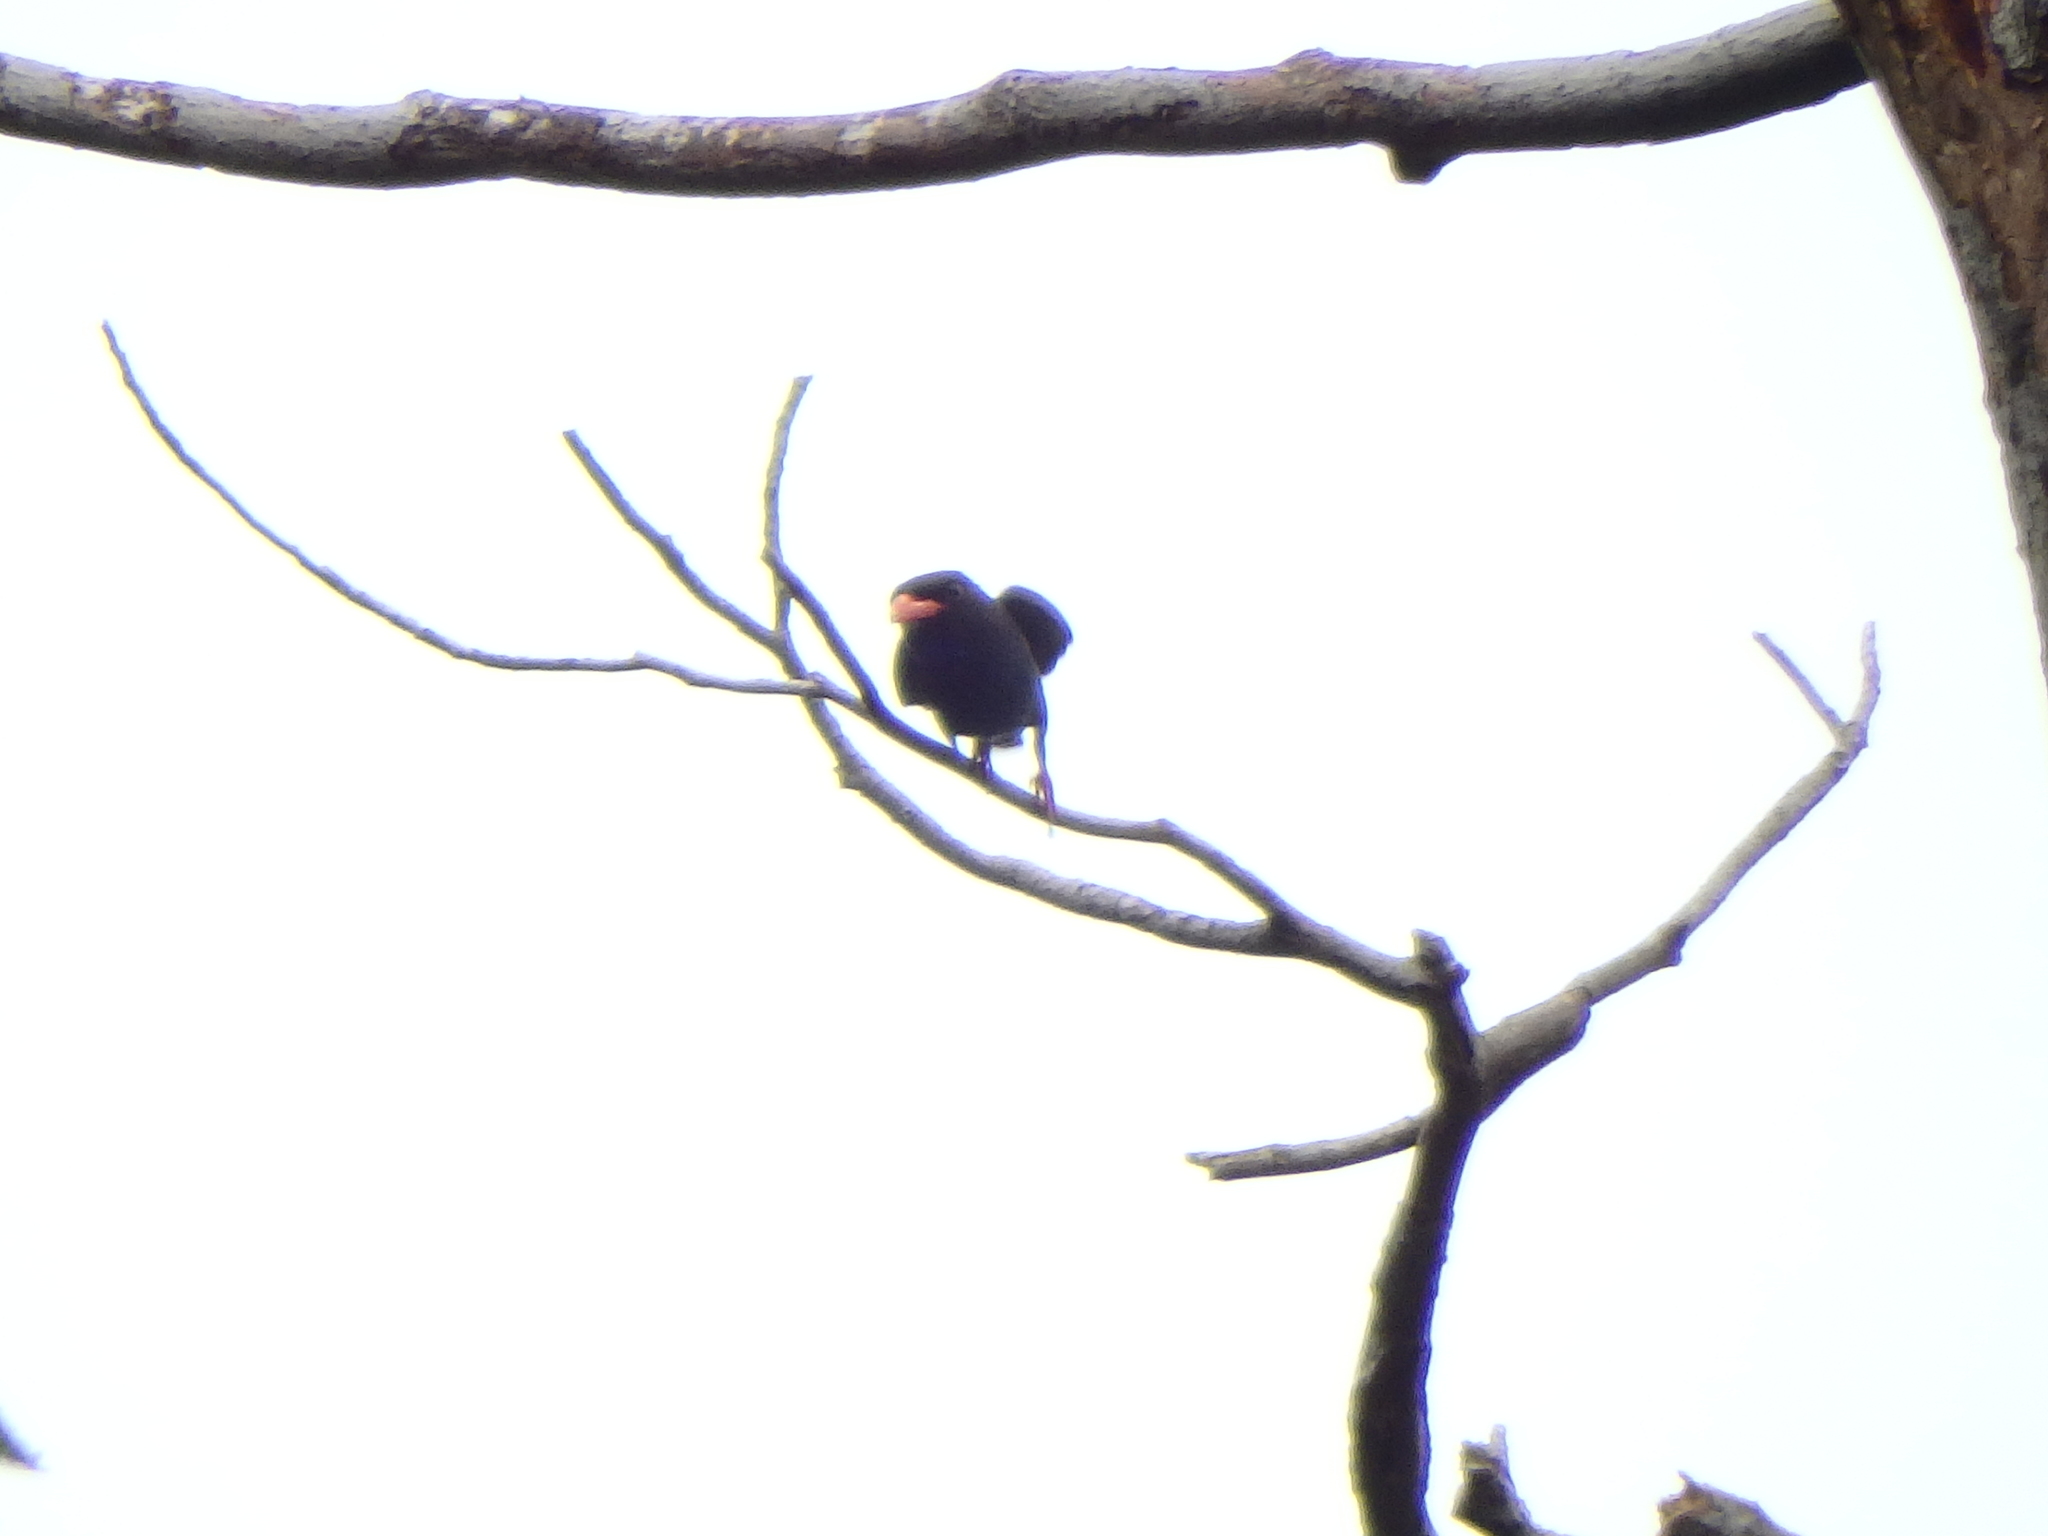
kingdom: Animalia
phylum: Chordata
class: Aves
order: Coraciiformes
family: Coraciidae
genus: Eurystomus
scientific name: Eurystomus orientalis
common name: Oriental dollarbird
